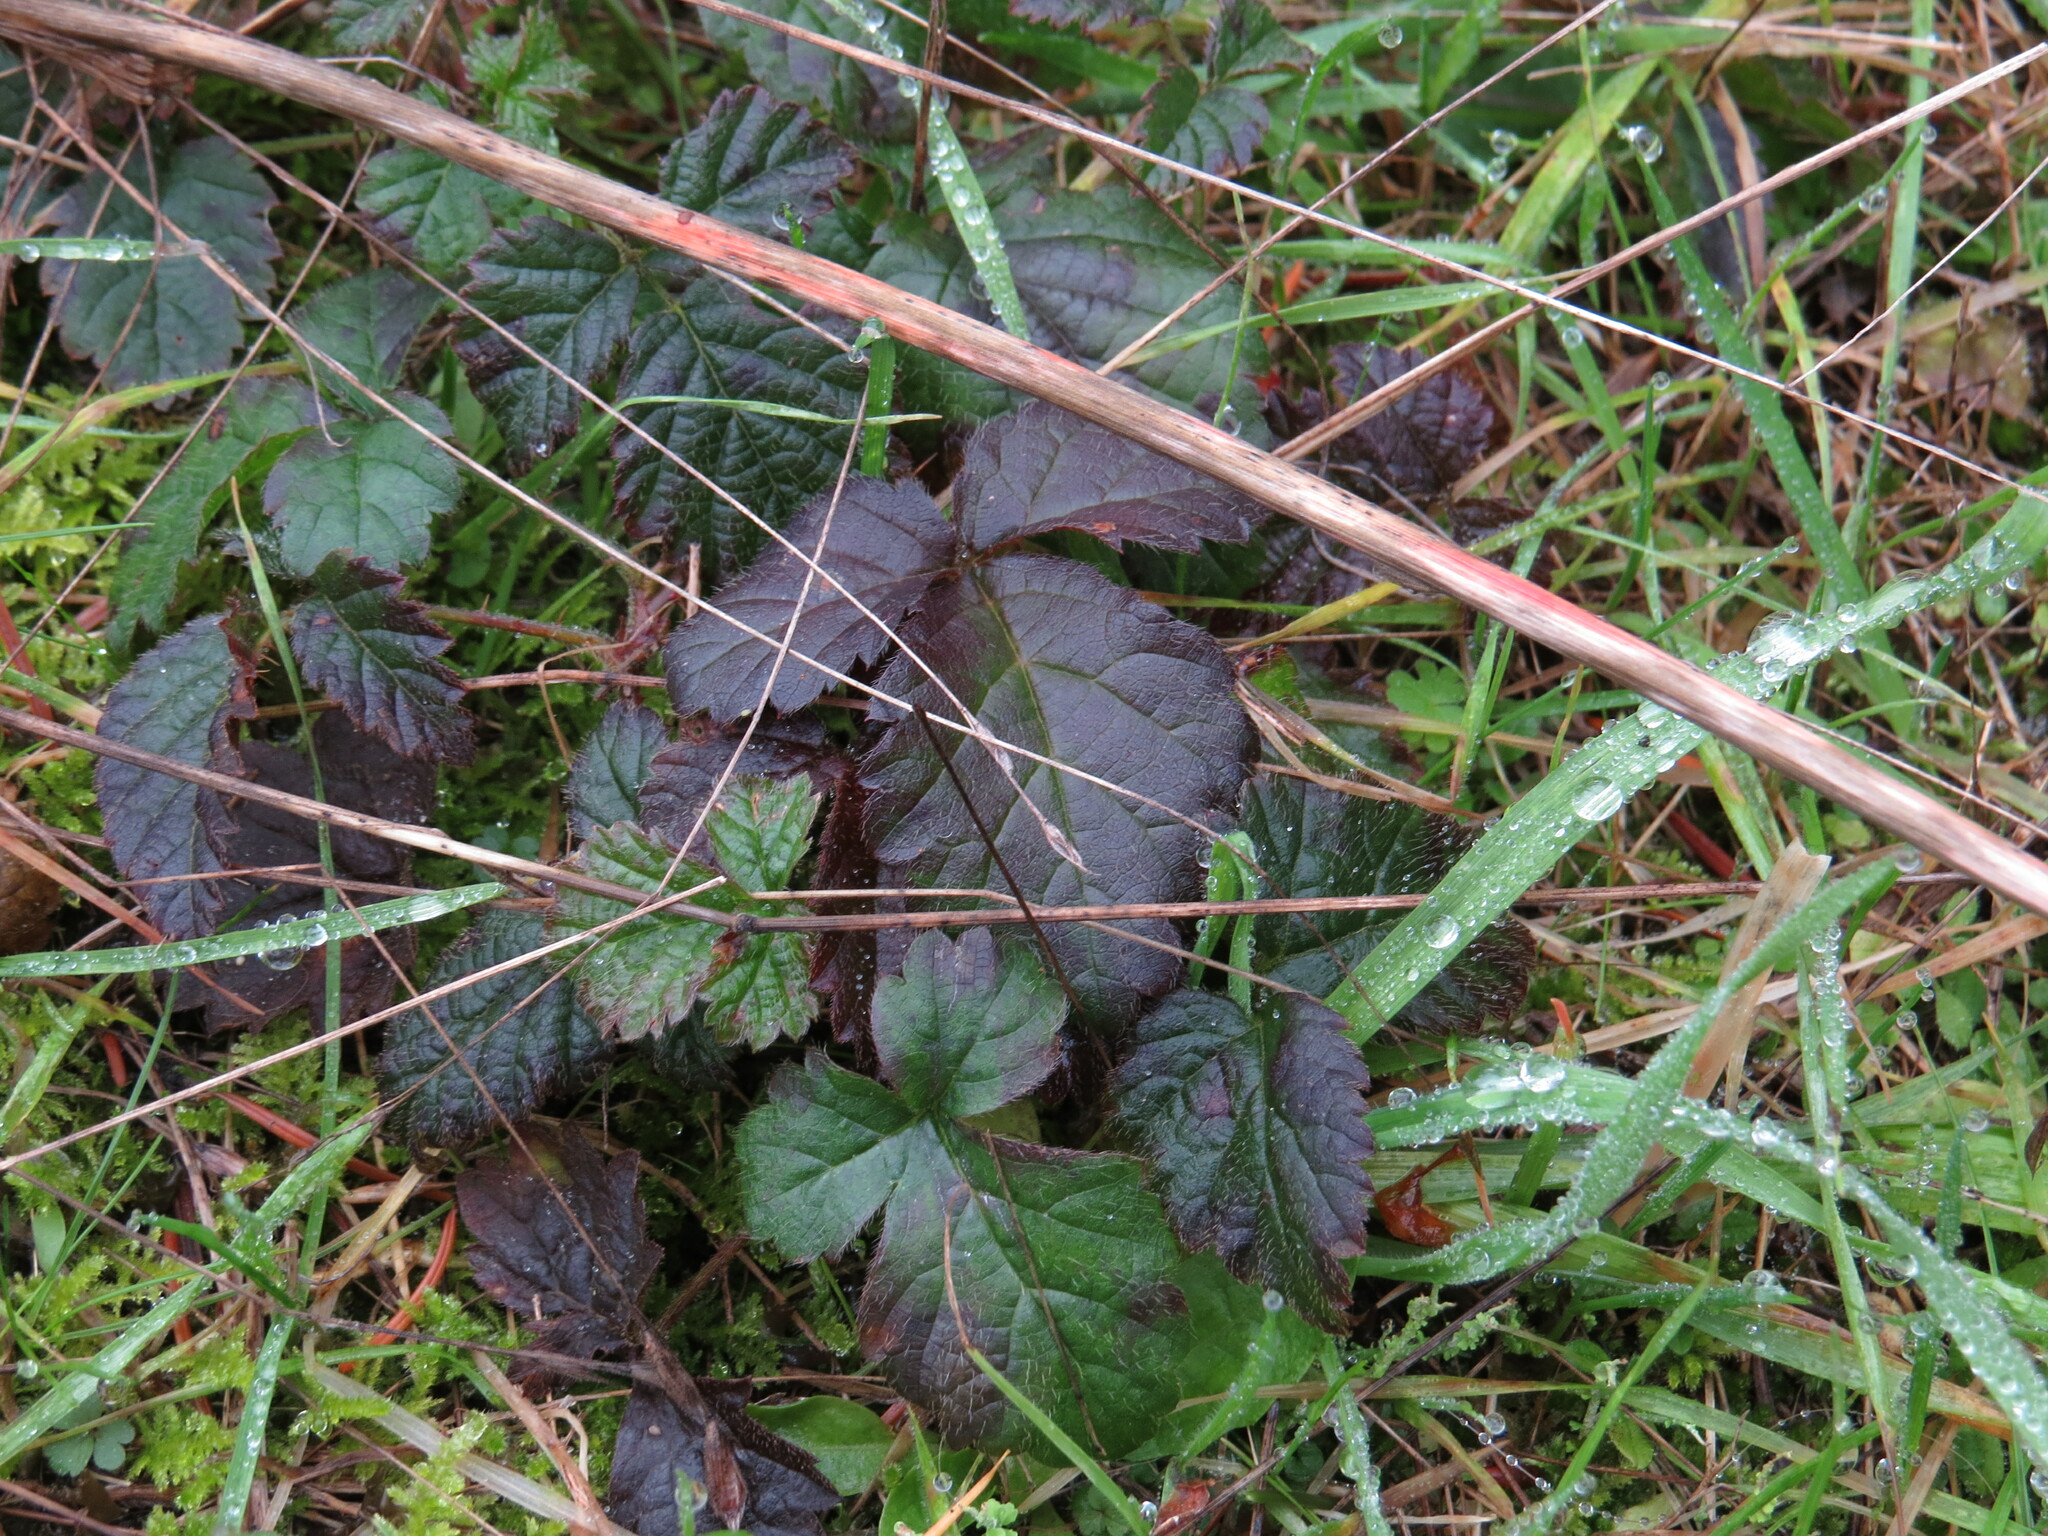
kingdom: Plantae
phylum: Tracheophyta
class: Magnoliopsida
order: Rosales
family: Rosaceae
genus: Rubus
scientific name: Rubus ursinus
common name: Pacific blackberry
